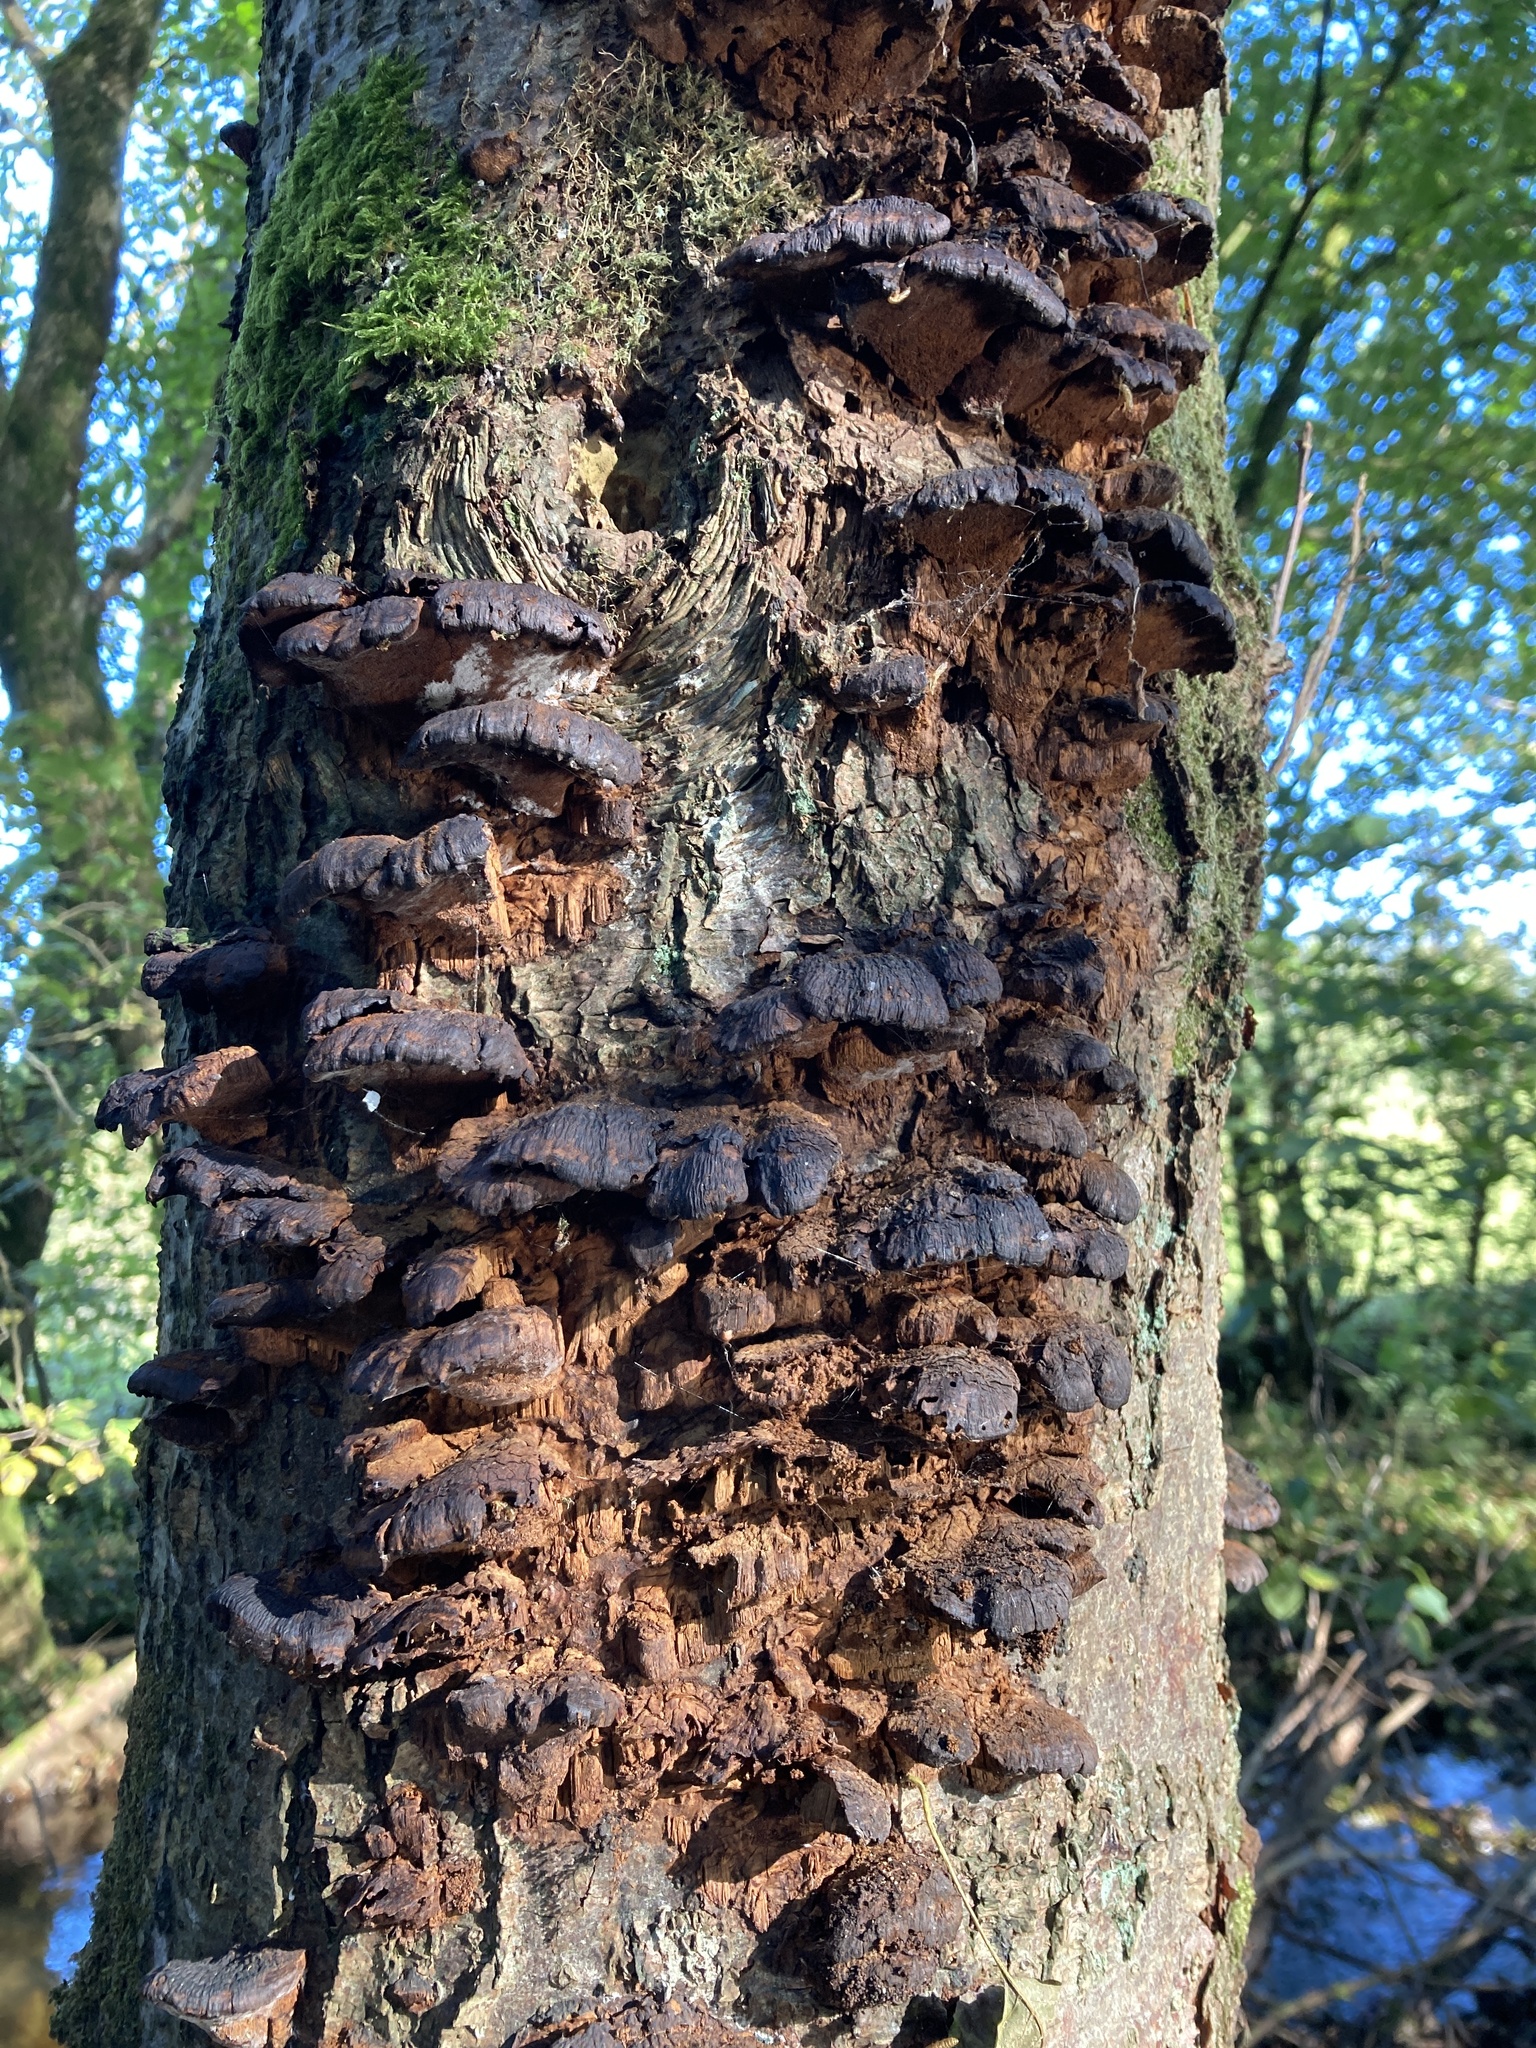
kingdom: Fungi
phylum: Basidiomycota
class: Agaricomycetes
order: Hymenochaetales
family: Hymenochaetaceae
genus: Xanthoporia
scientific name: Xanthoporia radiata
